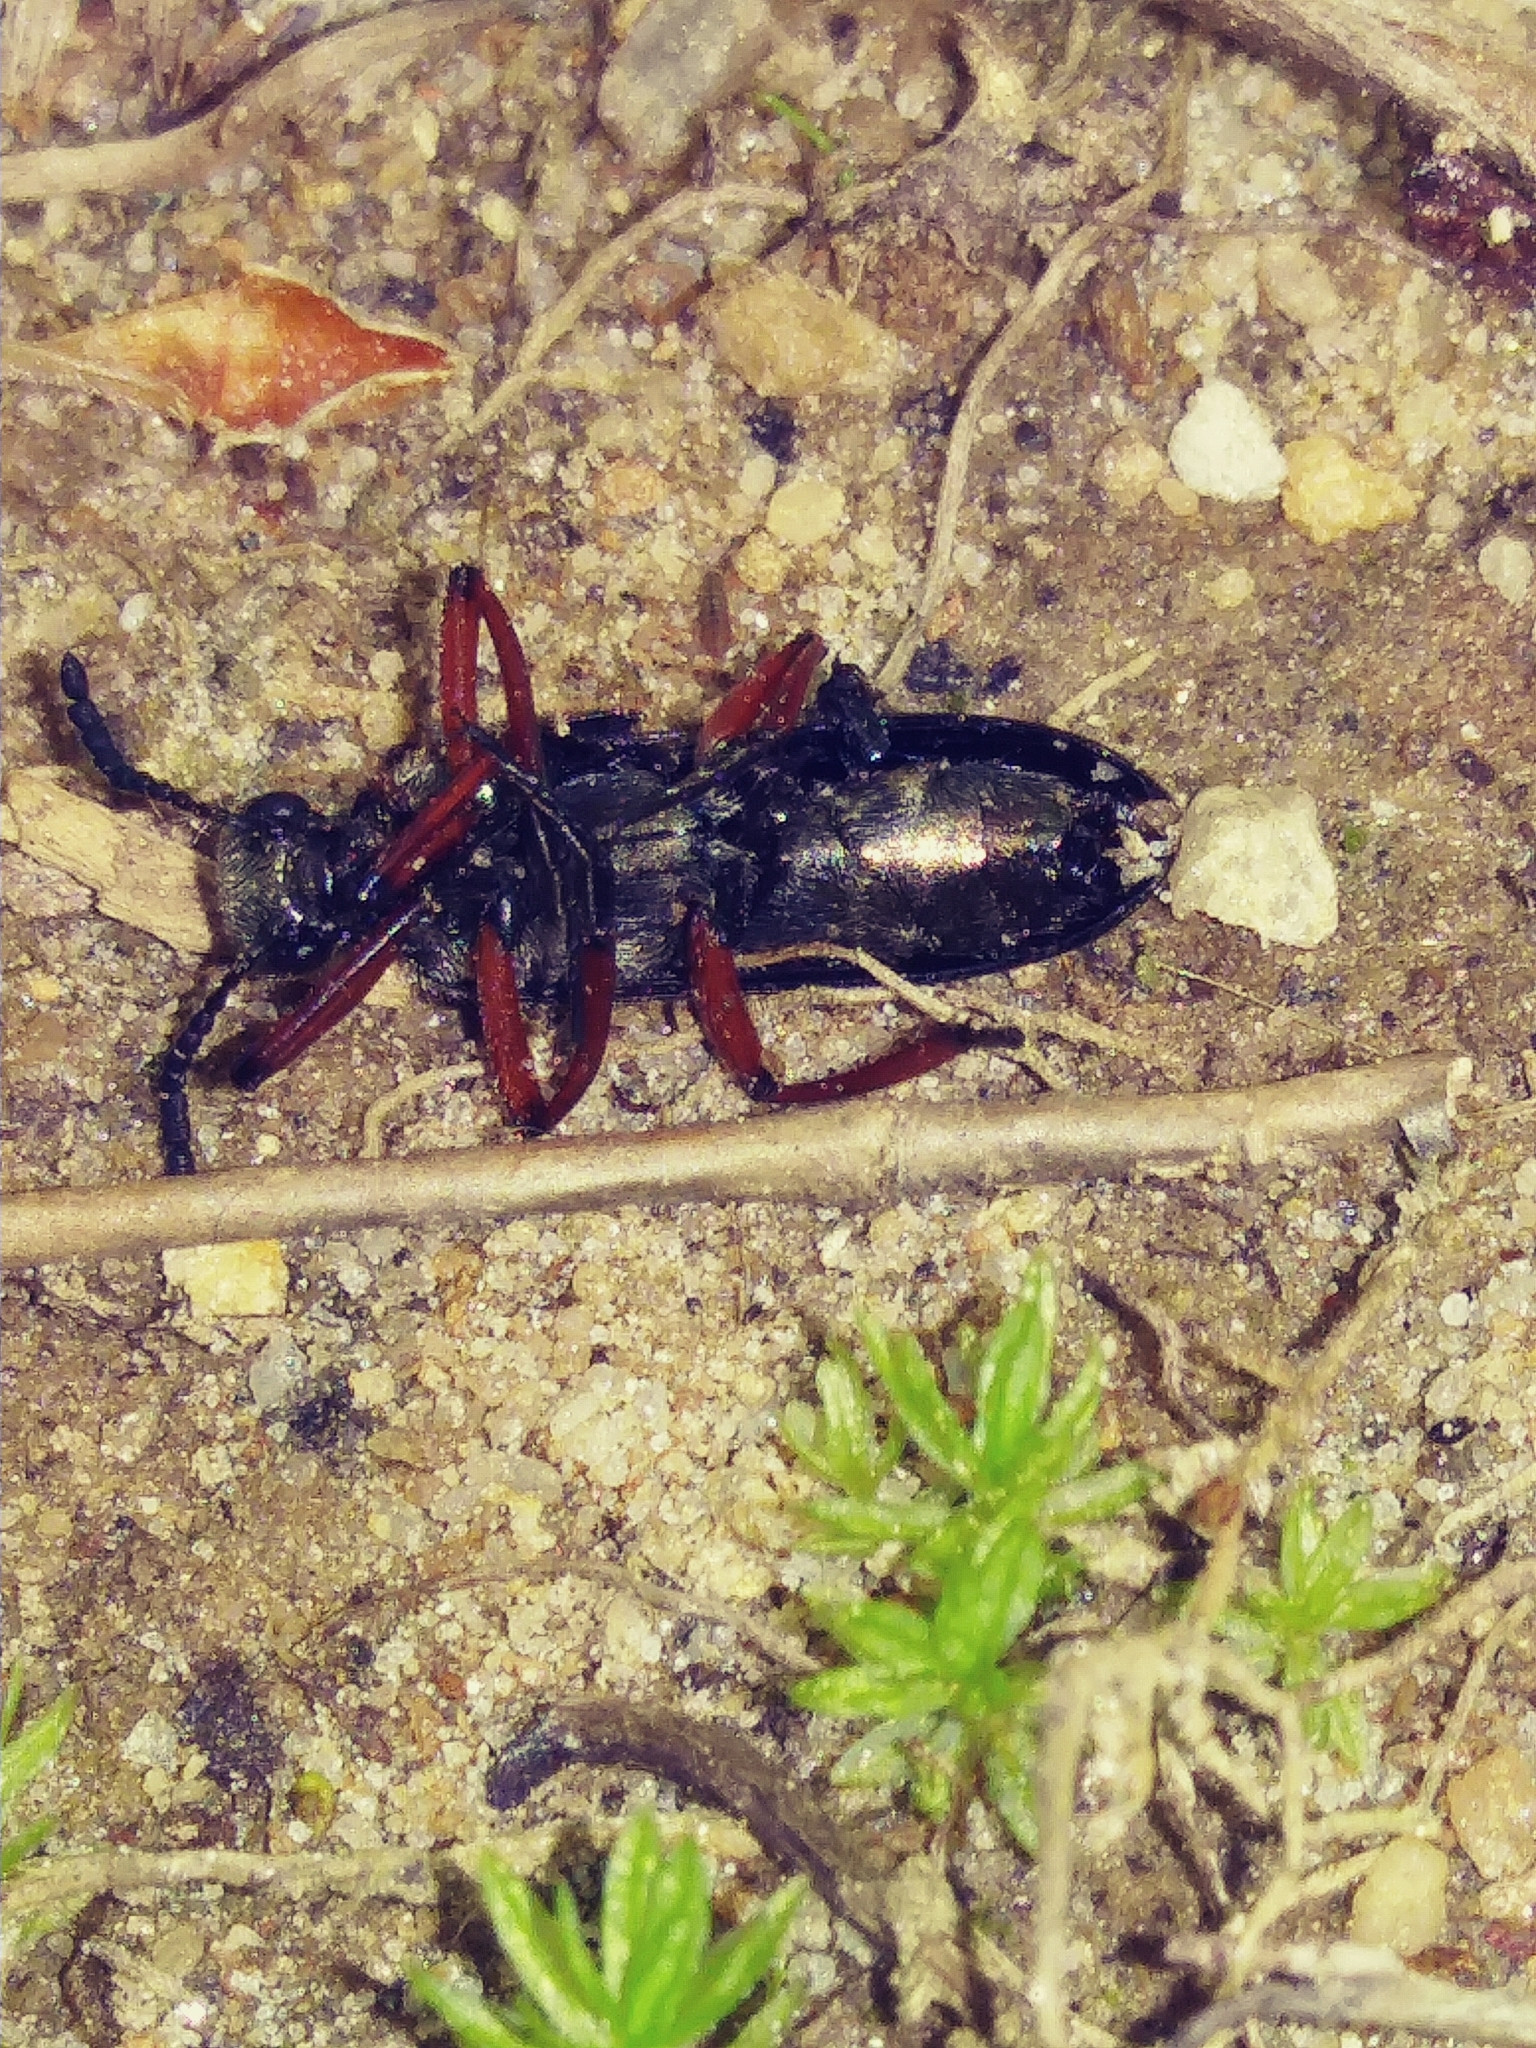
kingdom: Animalia
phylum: Arthropoda
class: Insecta
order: Coleoptera
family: Meloidae
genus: Lytta
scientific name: Lytta aenea
